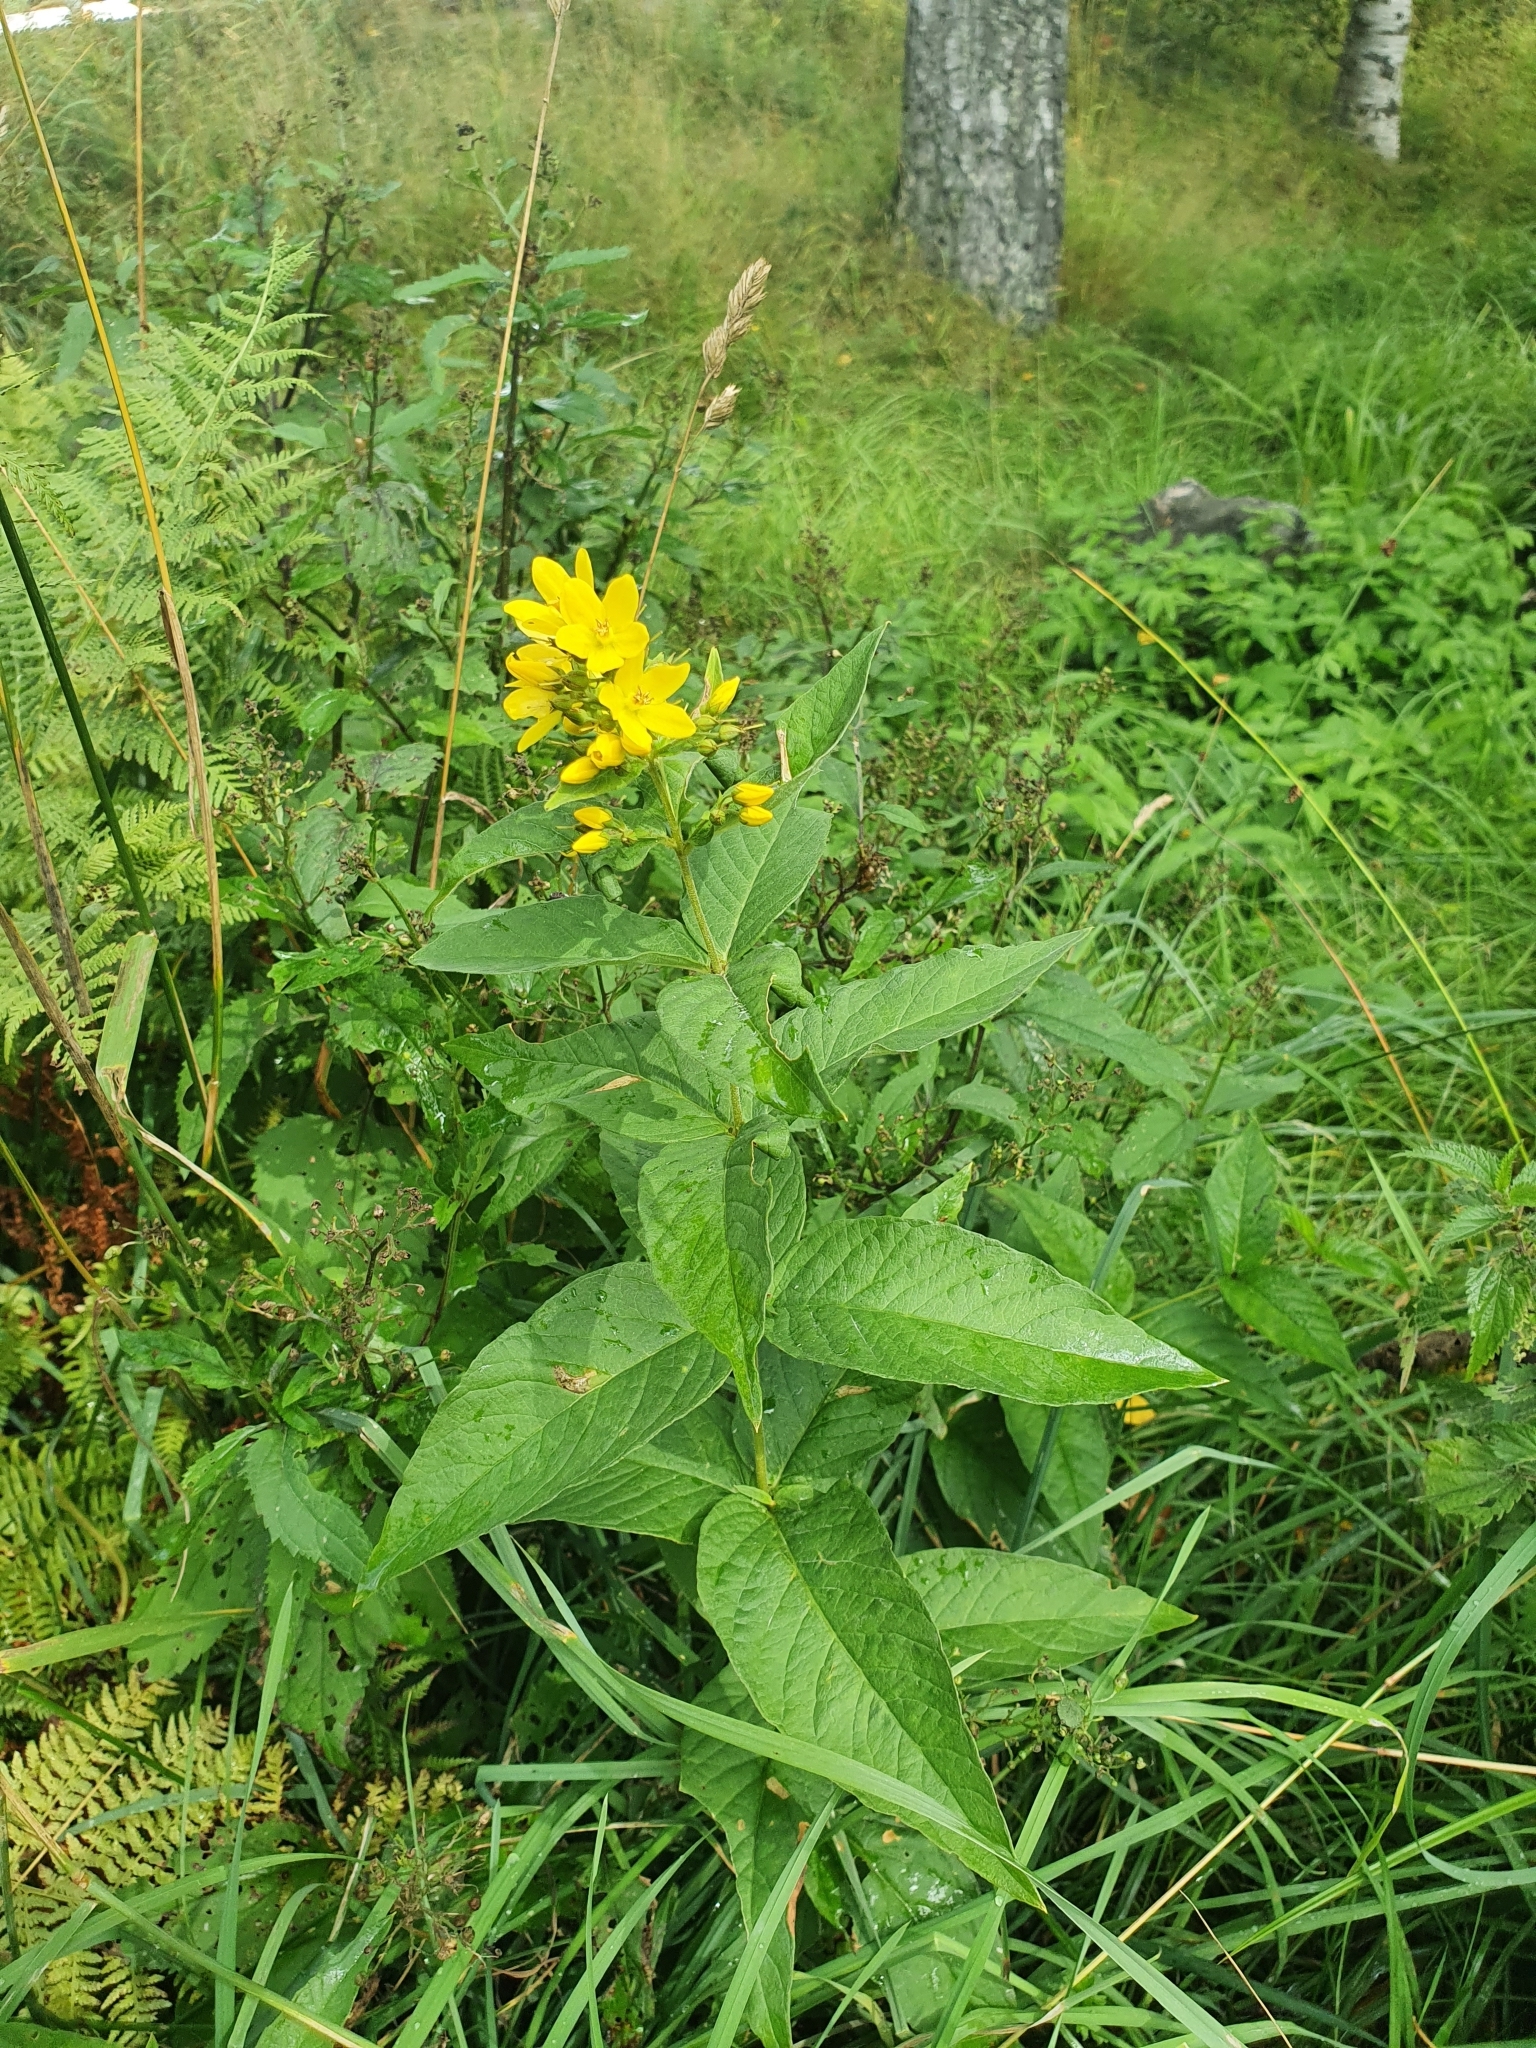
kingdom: Plantae
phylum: Tracheophyta
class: Magnoliopsida
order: Ericales
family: Primulaceae
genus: Lysimachia
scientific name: Lysimachia vulgaris
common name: Yellow loosestrife
